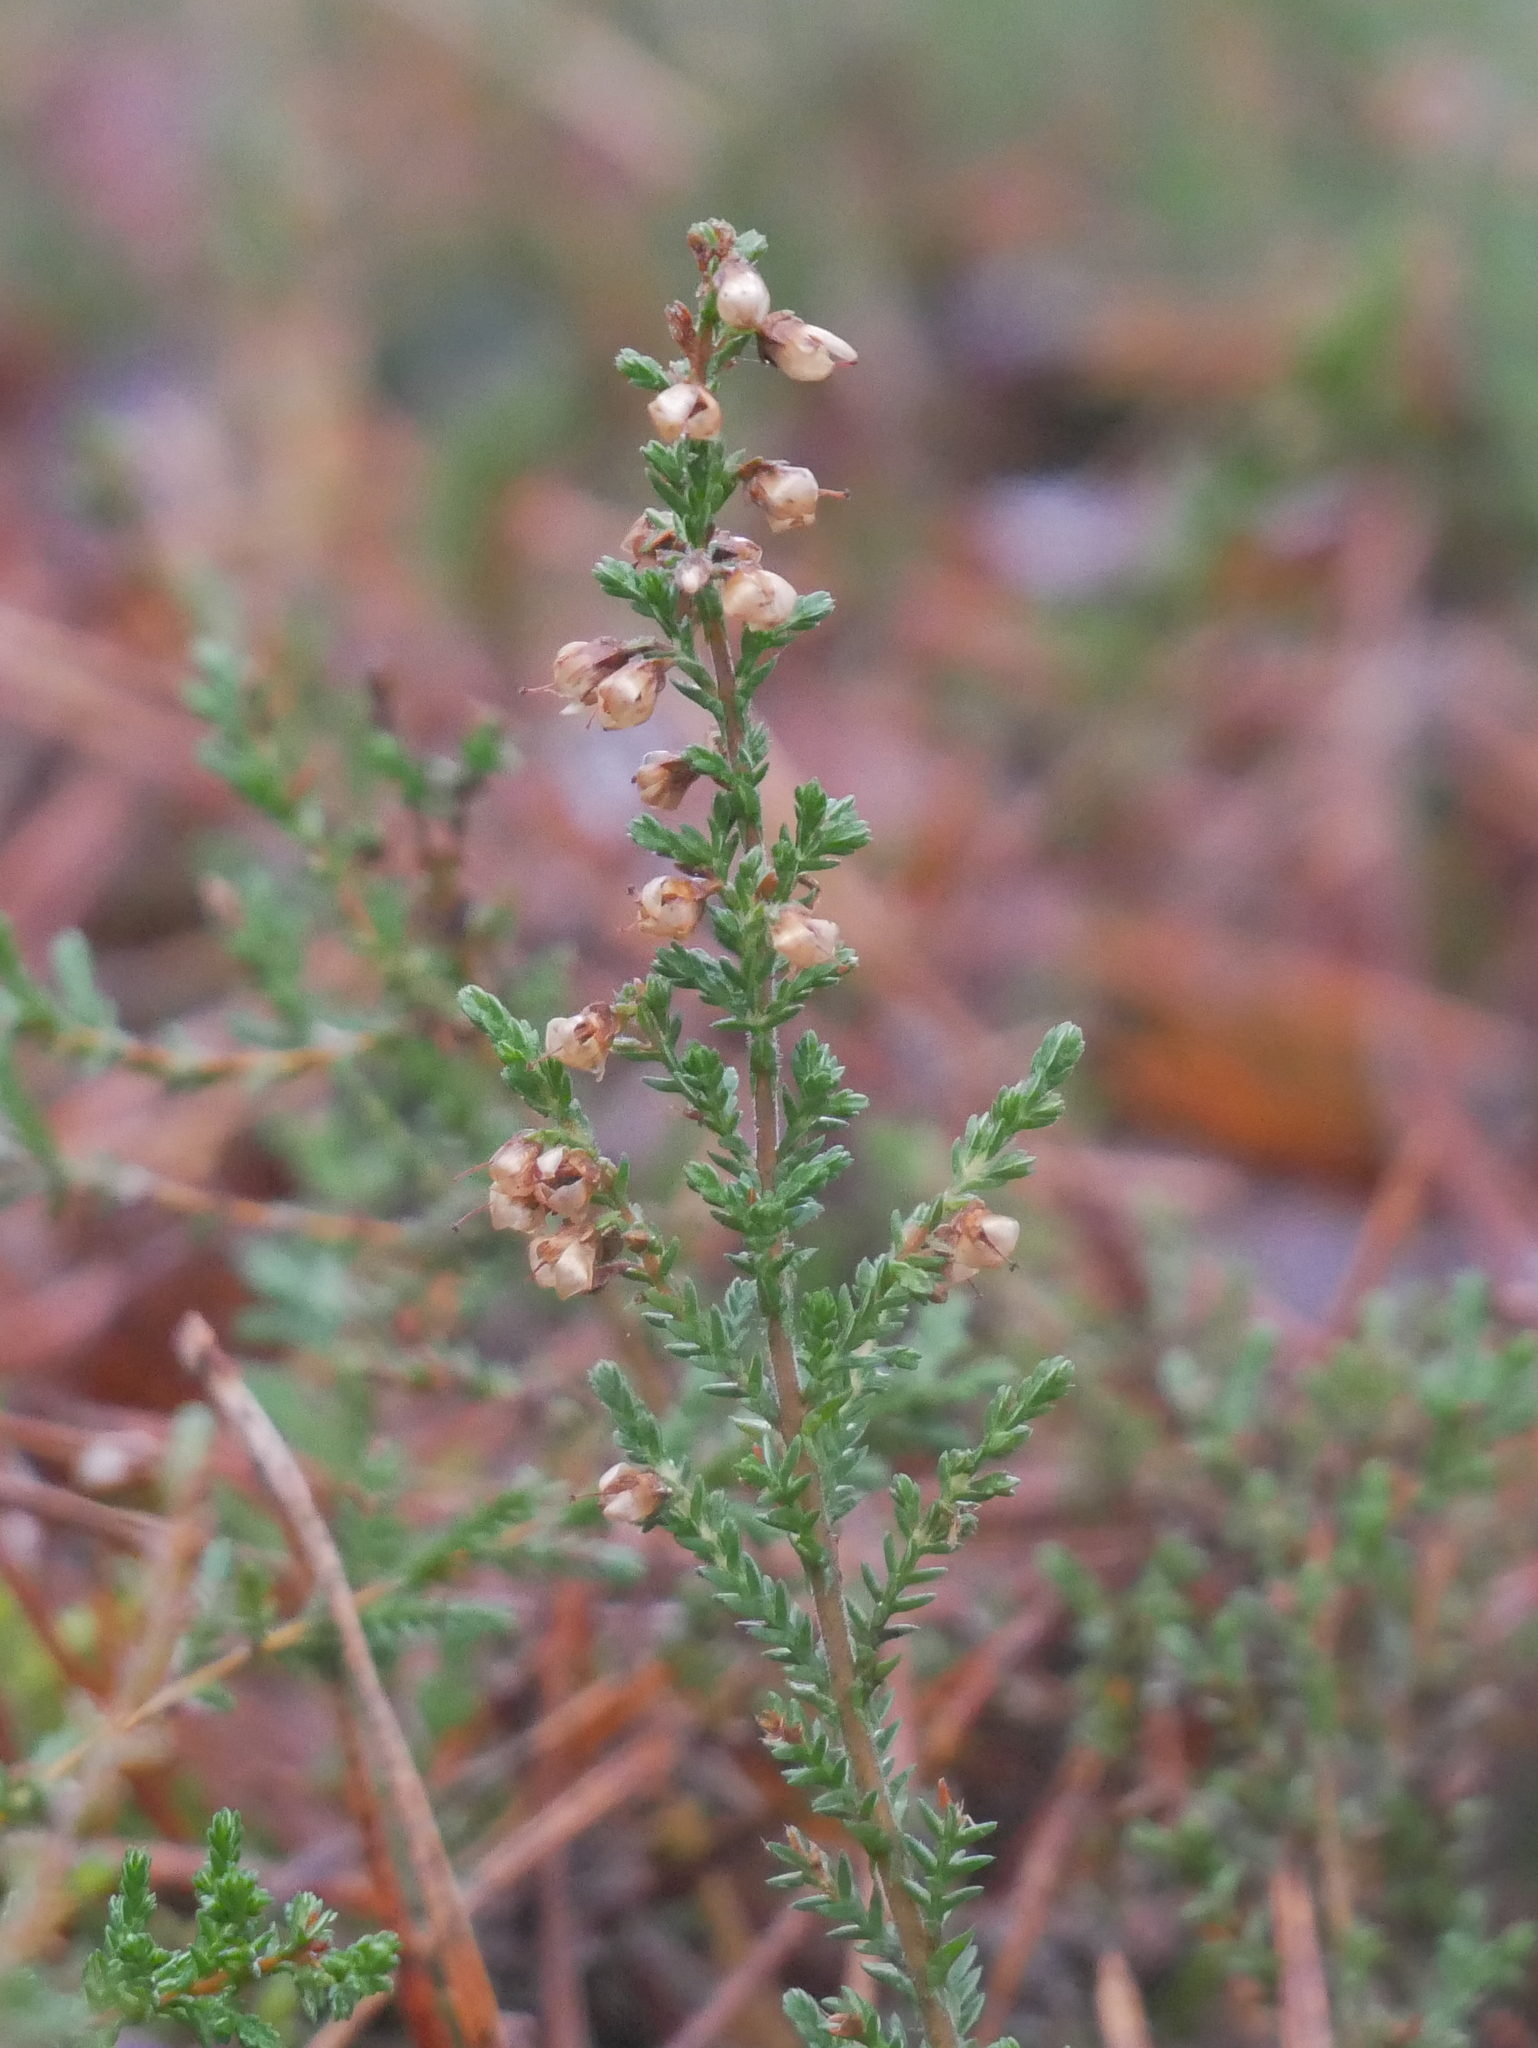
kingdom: Plantae
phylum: Tracheophyta
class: Magnoliopsida
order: Ericales
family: Ericaceae
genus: Calluna
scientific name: Calluna vulgaris
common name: Heather
